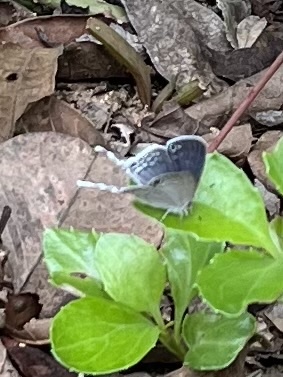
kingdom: Animalia
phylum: Arthropoda
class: Insecta
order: Lepidoptera
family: Lycaenidae
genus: Leptomyrina
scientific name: Leptomyrina hirundo
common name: Tailed black-eye
